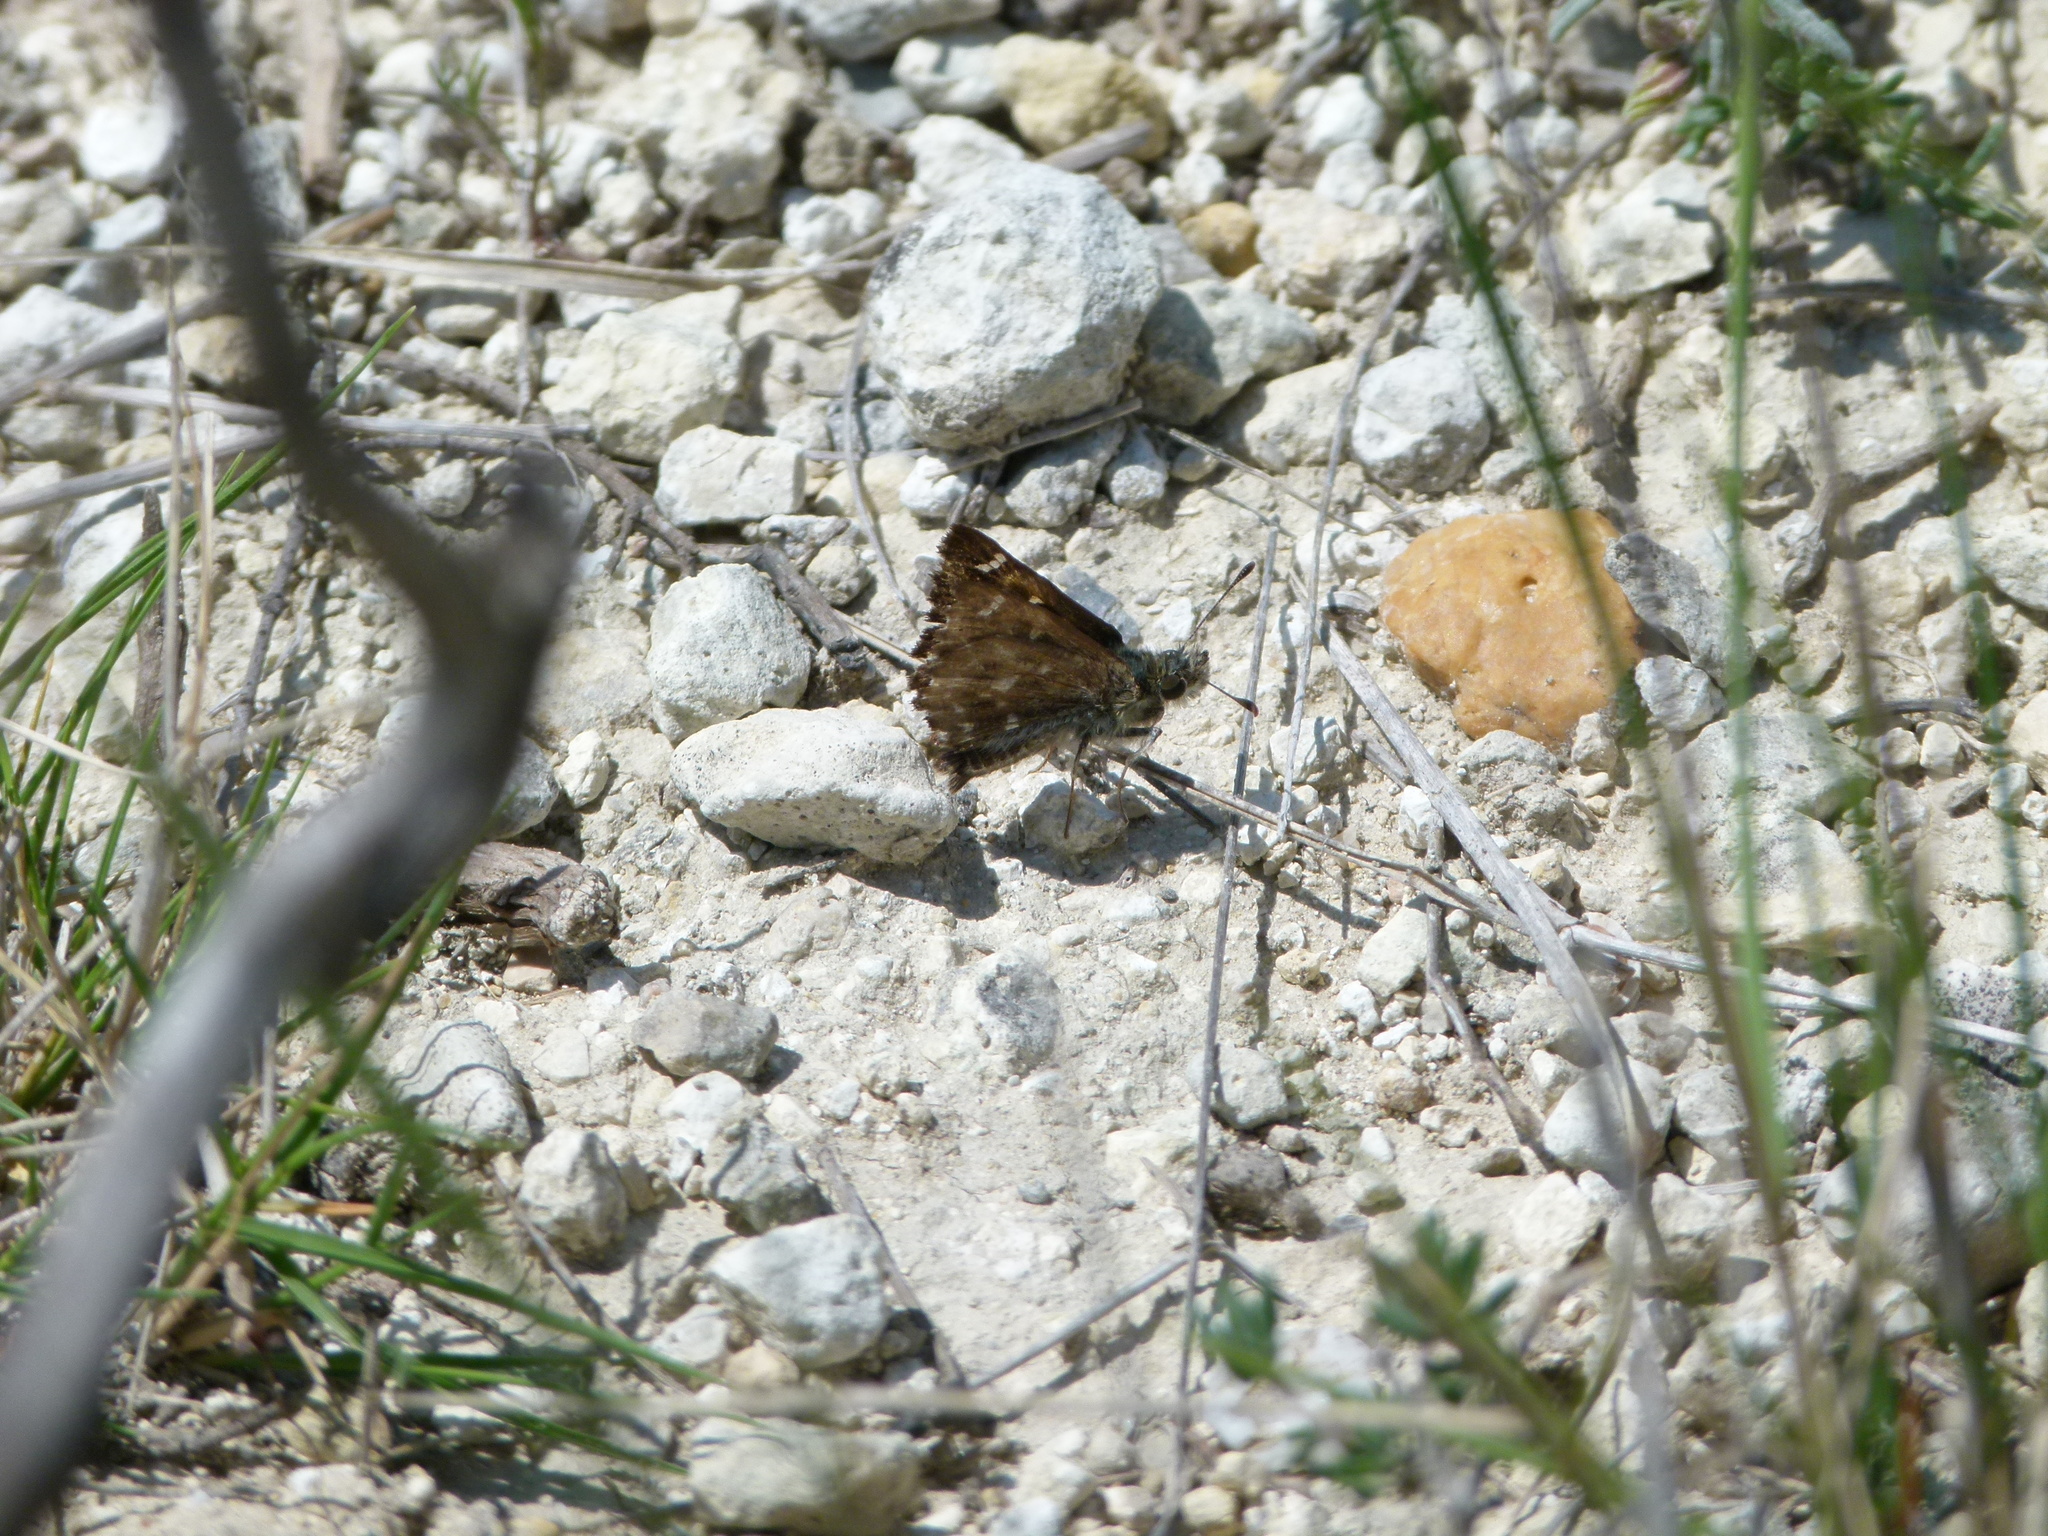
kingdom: Animalia
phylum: Arthropoda
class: Insecta
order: Lepidoptera
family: Hesperiidae
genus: Carcharodus
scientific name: Carcharodus alceae
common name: Mallow skipper
